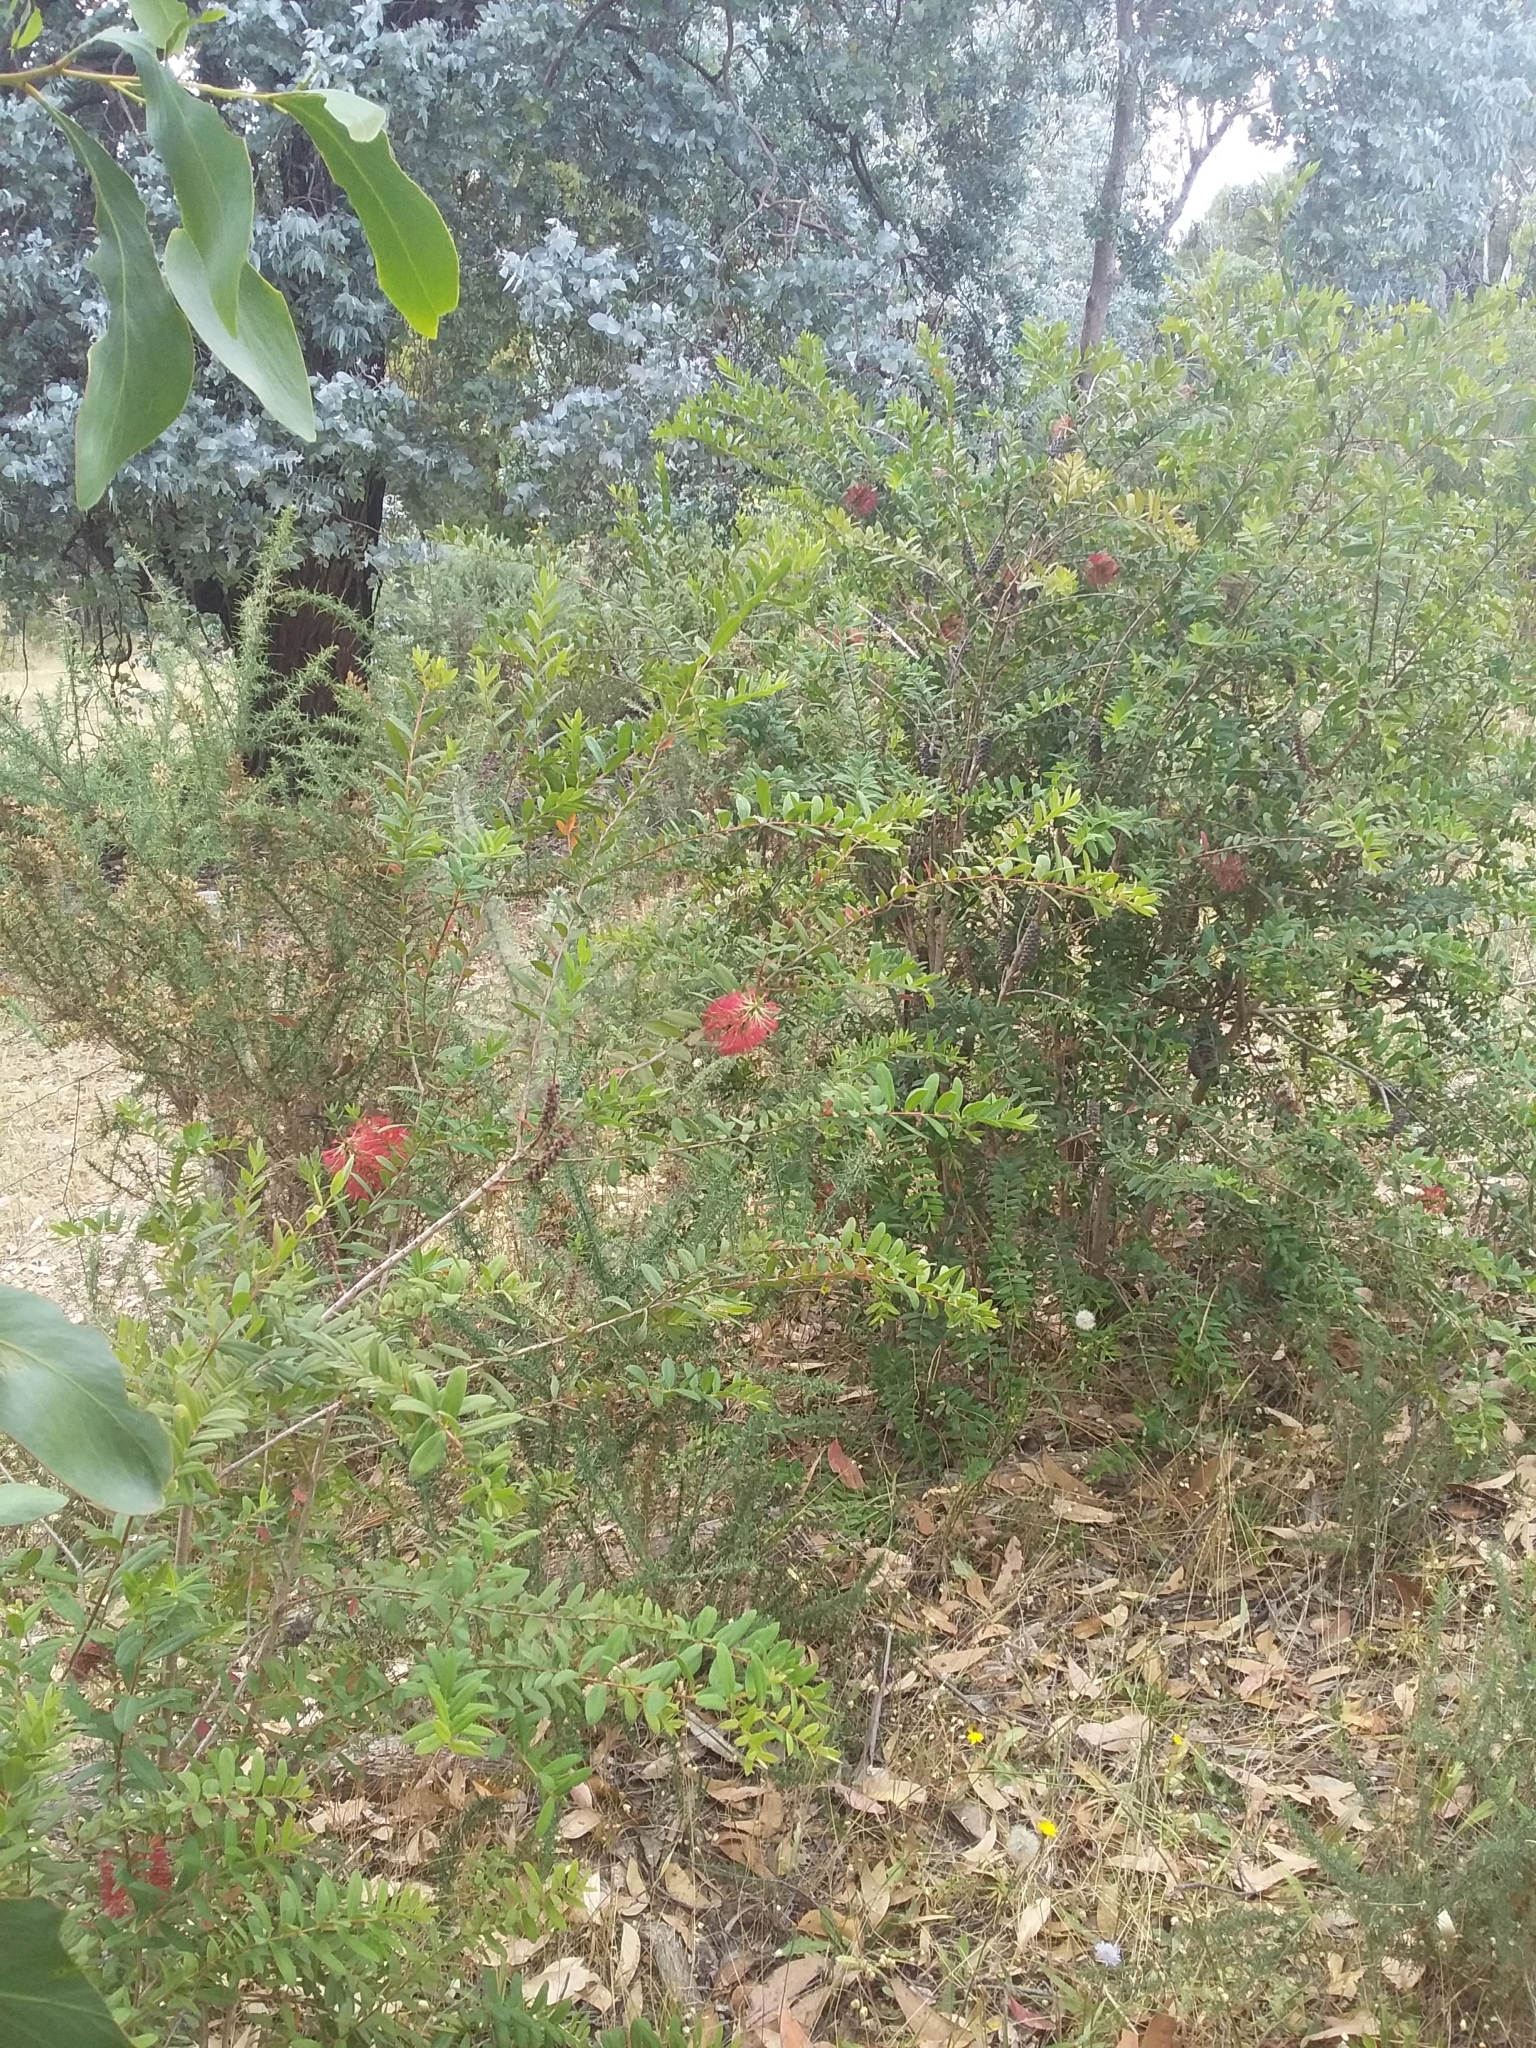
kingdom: Plantae
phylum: Tracheophyta
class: Magnoliopsida
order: Myrtales
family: Myrtaceae
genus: Melaleuca
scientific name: Melaleuca hypericifolia
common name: Red honey myrtle
